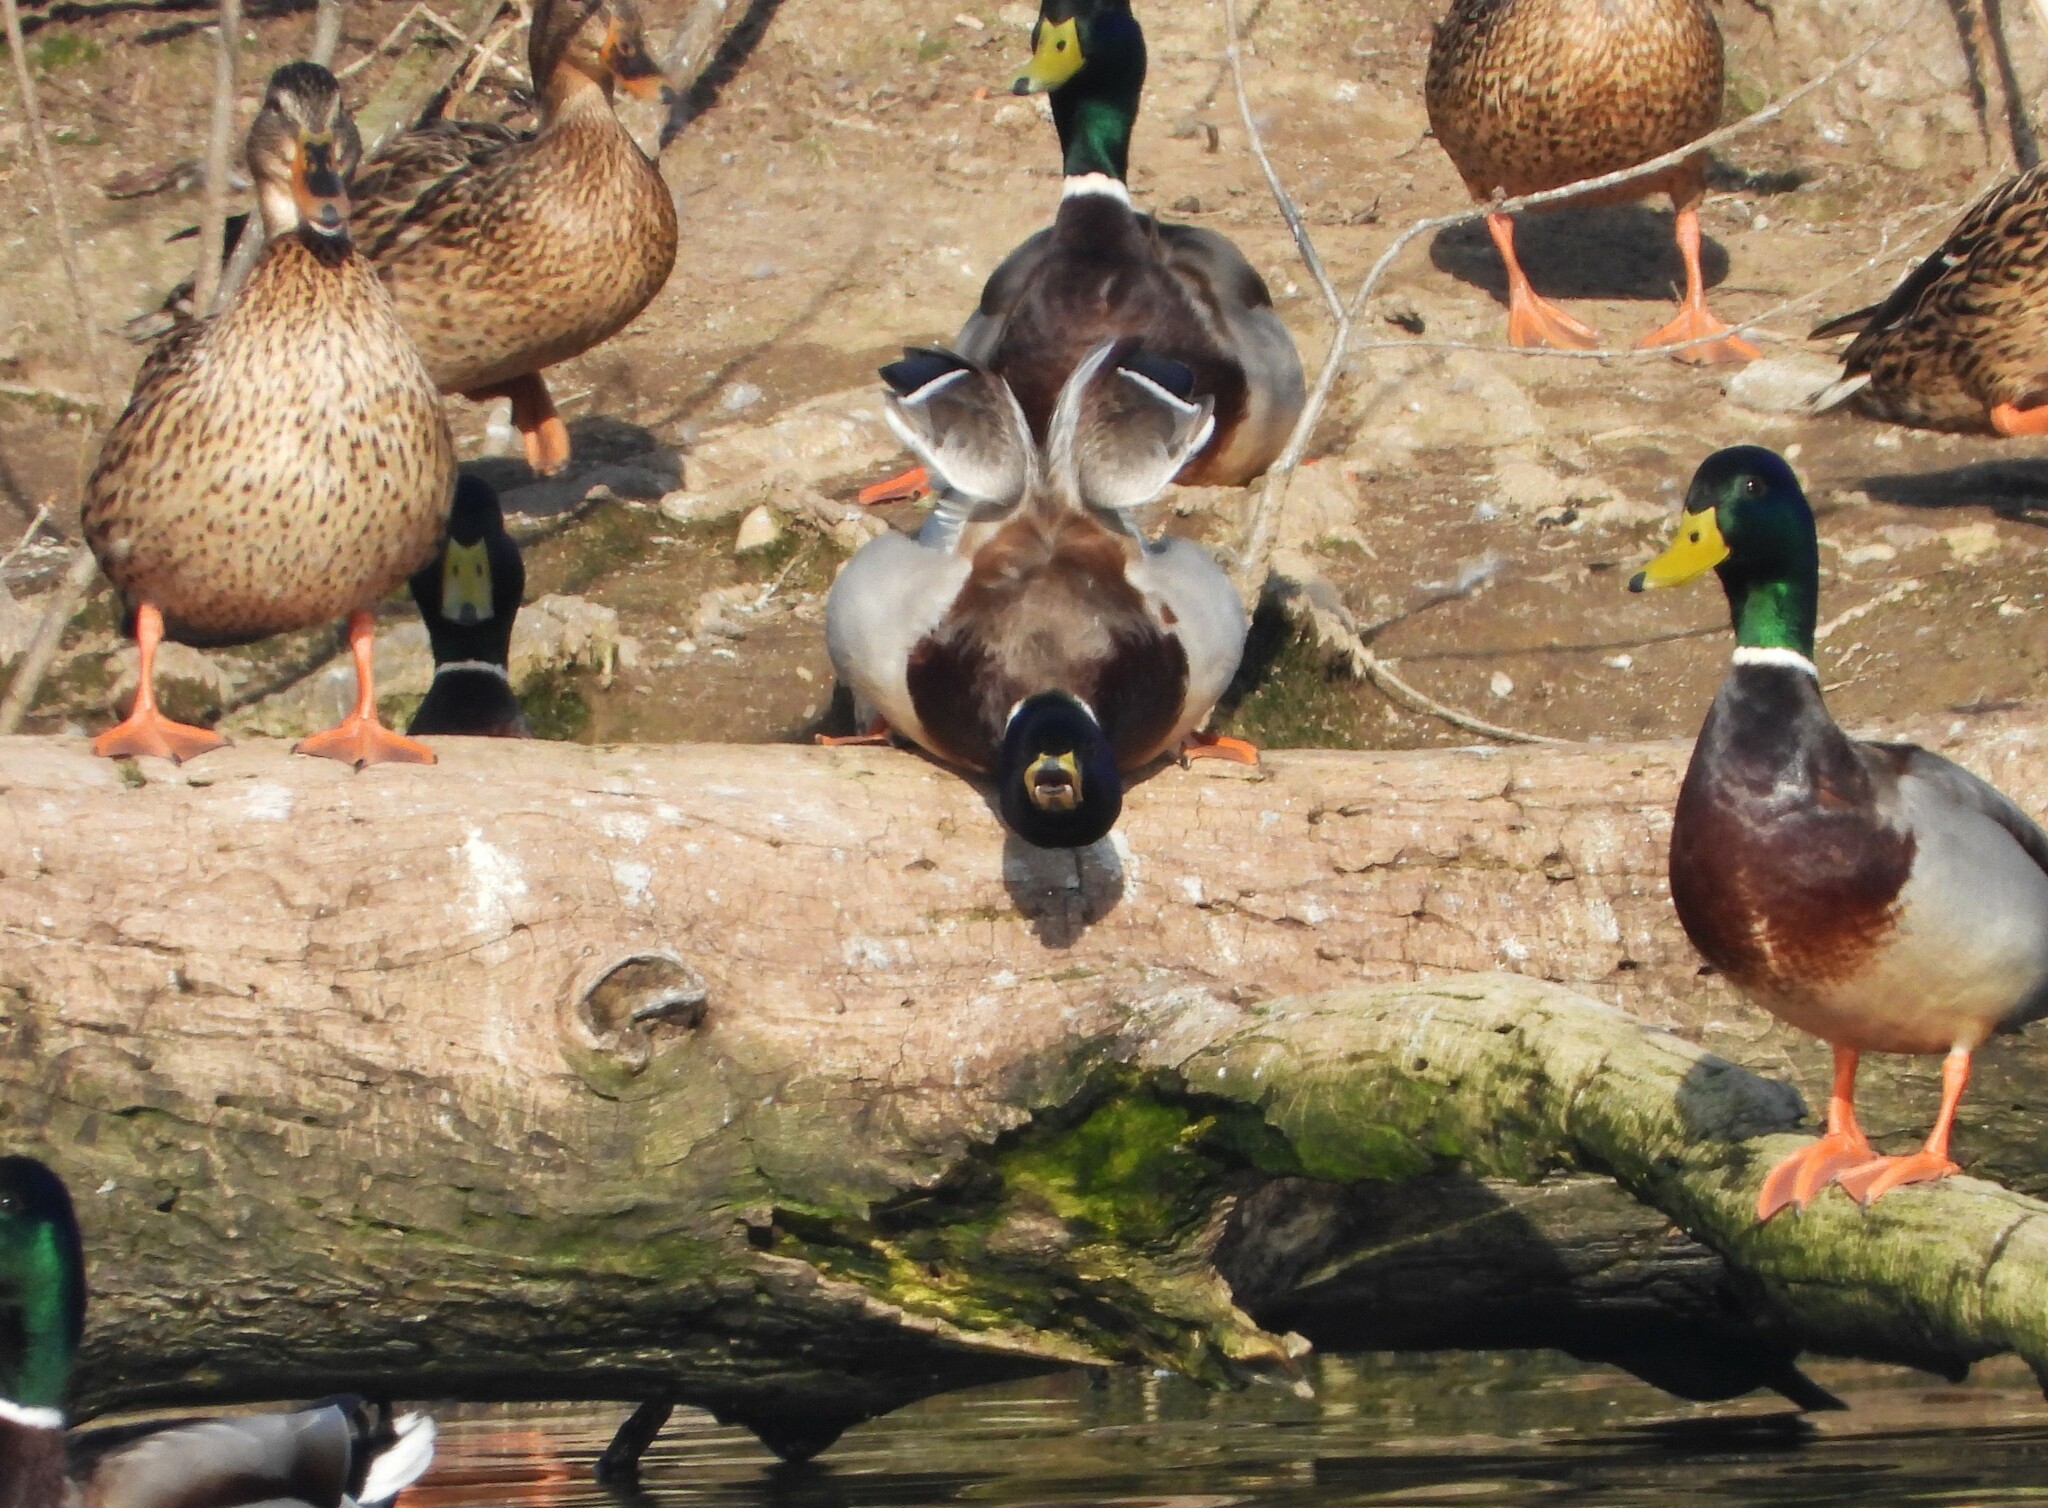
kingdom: Animalia
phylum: Chordata
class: Aves
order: Anseriformes
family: Anatidae
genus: Anas
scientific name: Anas platyrhynchos
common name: Mallard
